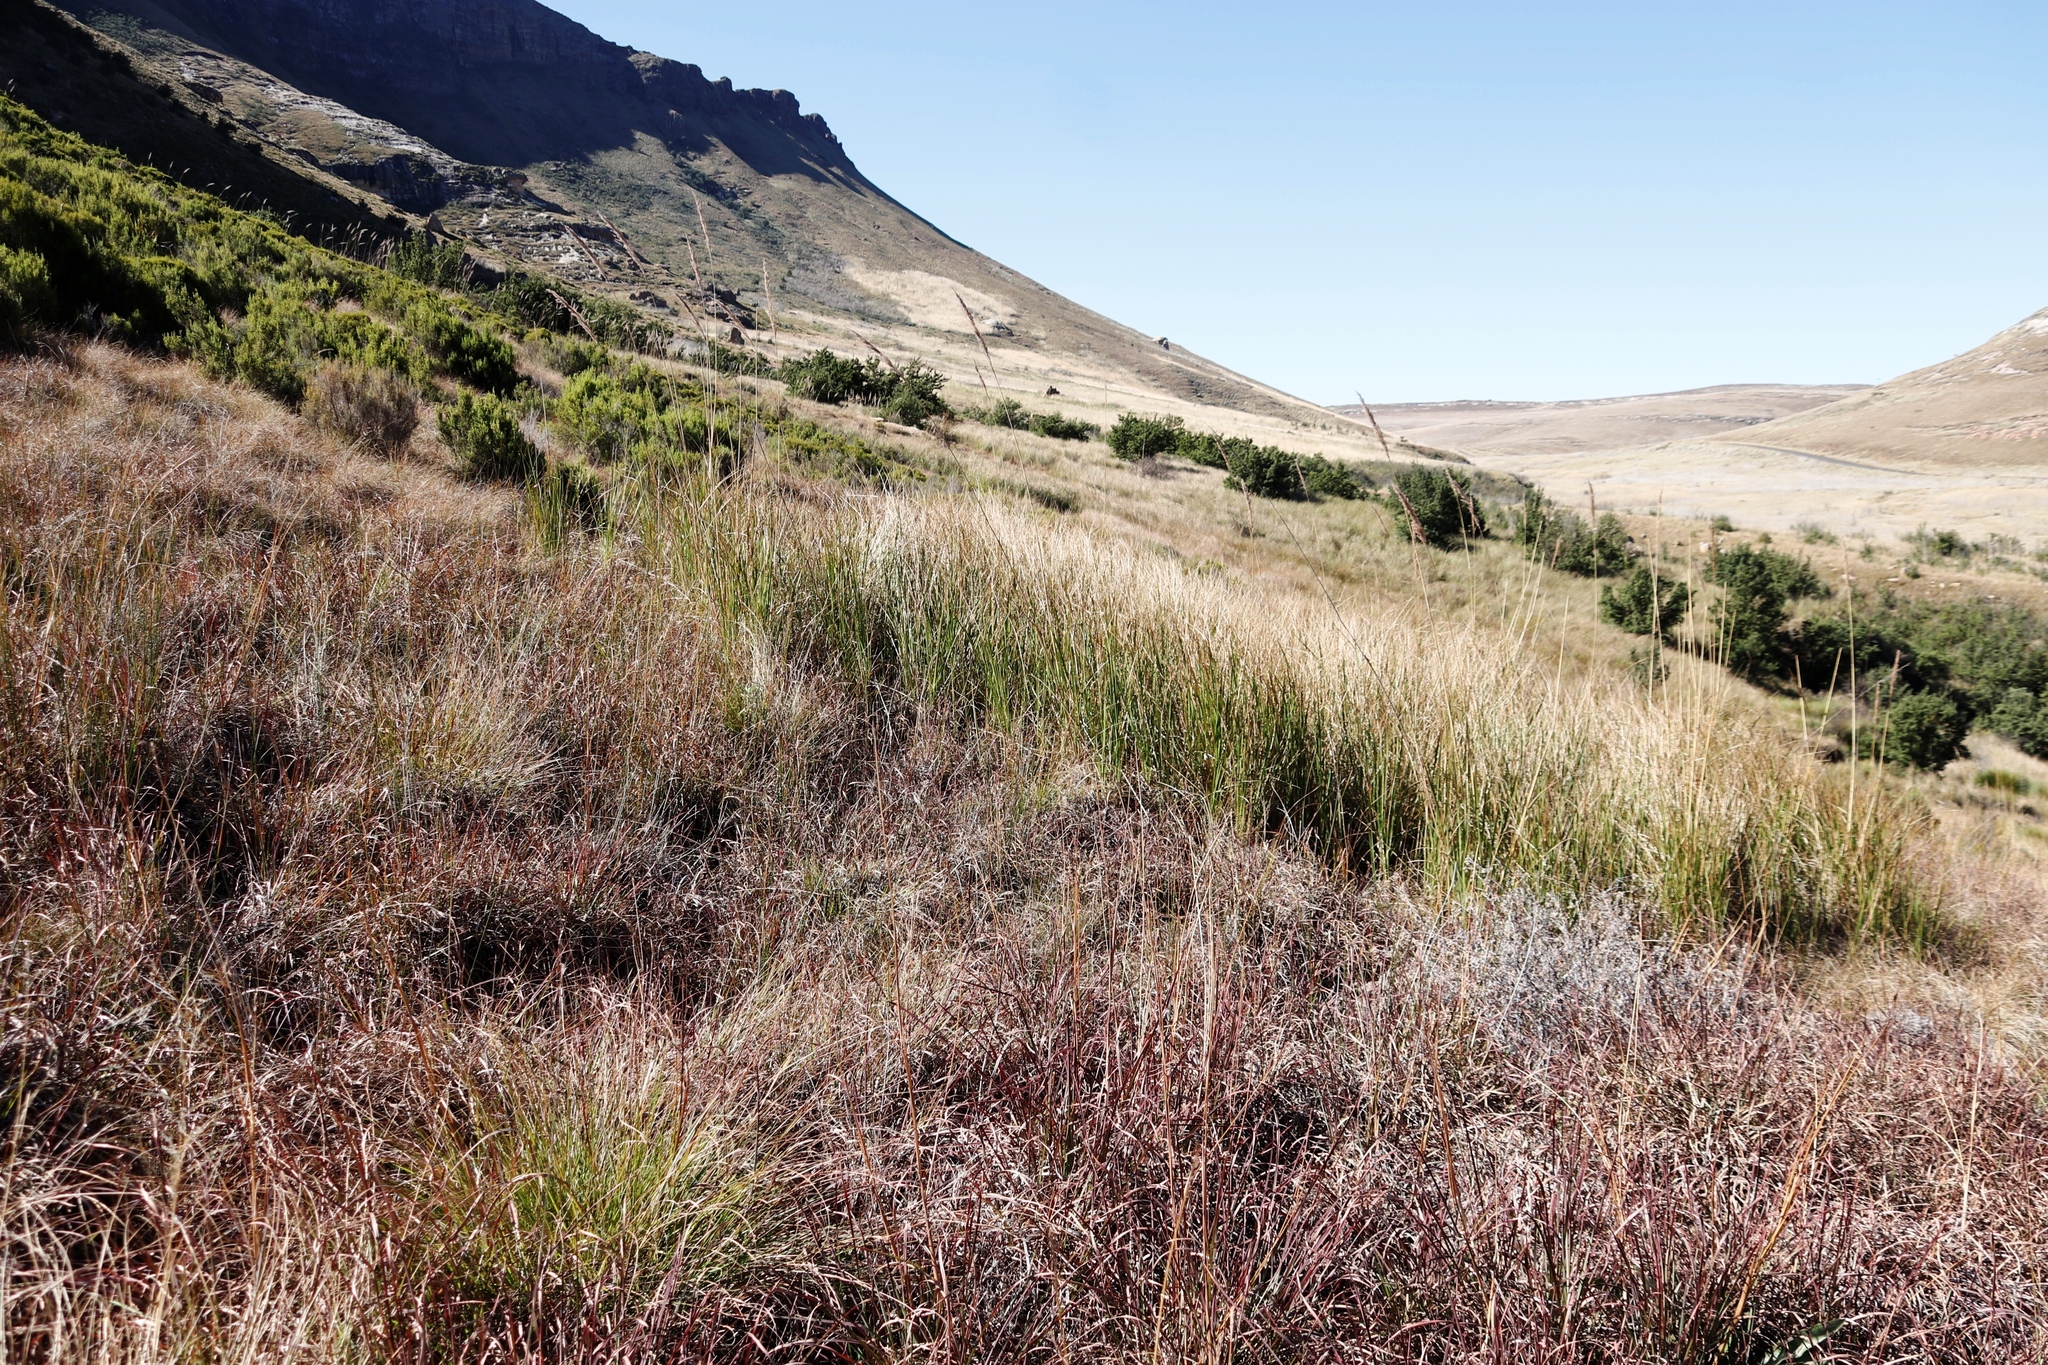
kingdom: Plantae
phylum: Tracheophyta
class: Liliopsida
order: Poales
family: Poaceae
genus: Miscanthus
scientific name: Miscanthus ecklonii
